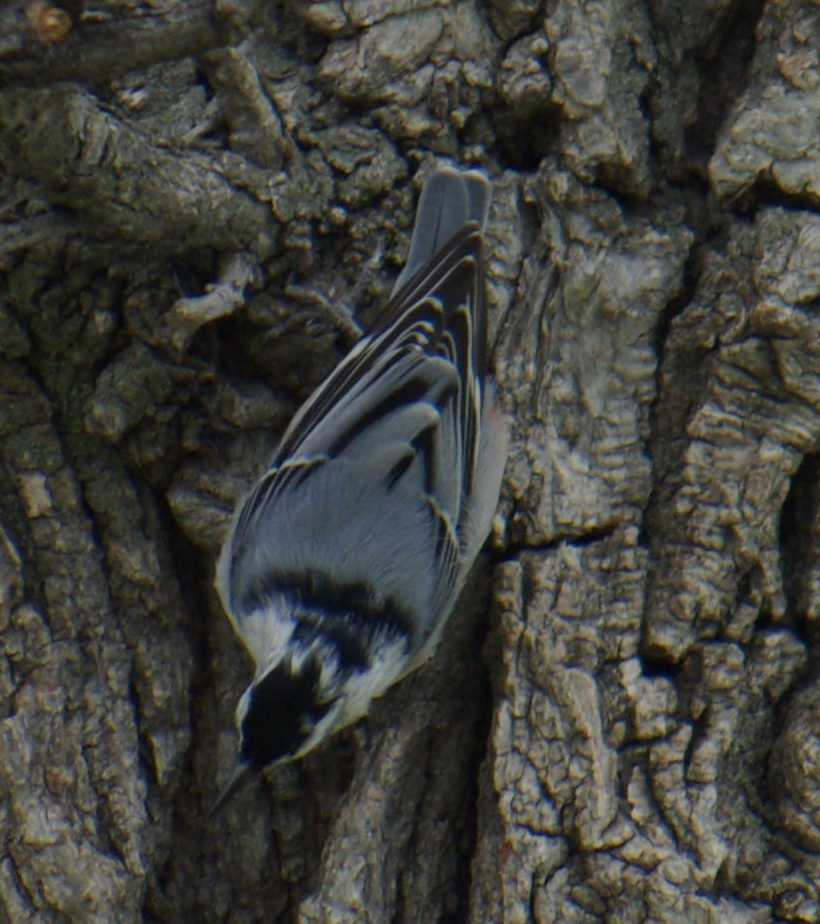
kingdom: Animalia
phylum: Chordata
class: Aves
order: Passeriformes
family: Sittidae
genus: Sitta
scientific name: Sitta carolinensis
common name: White-breasted nuthatch
